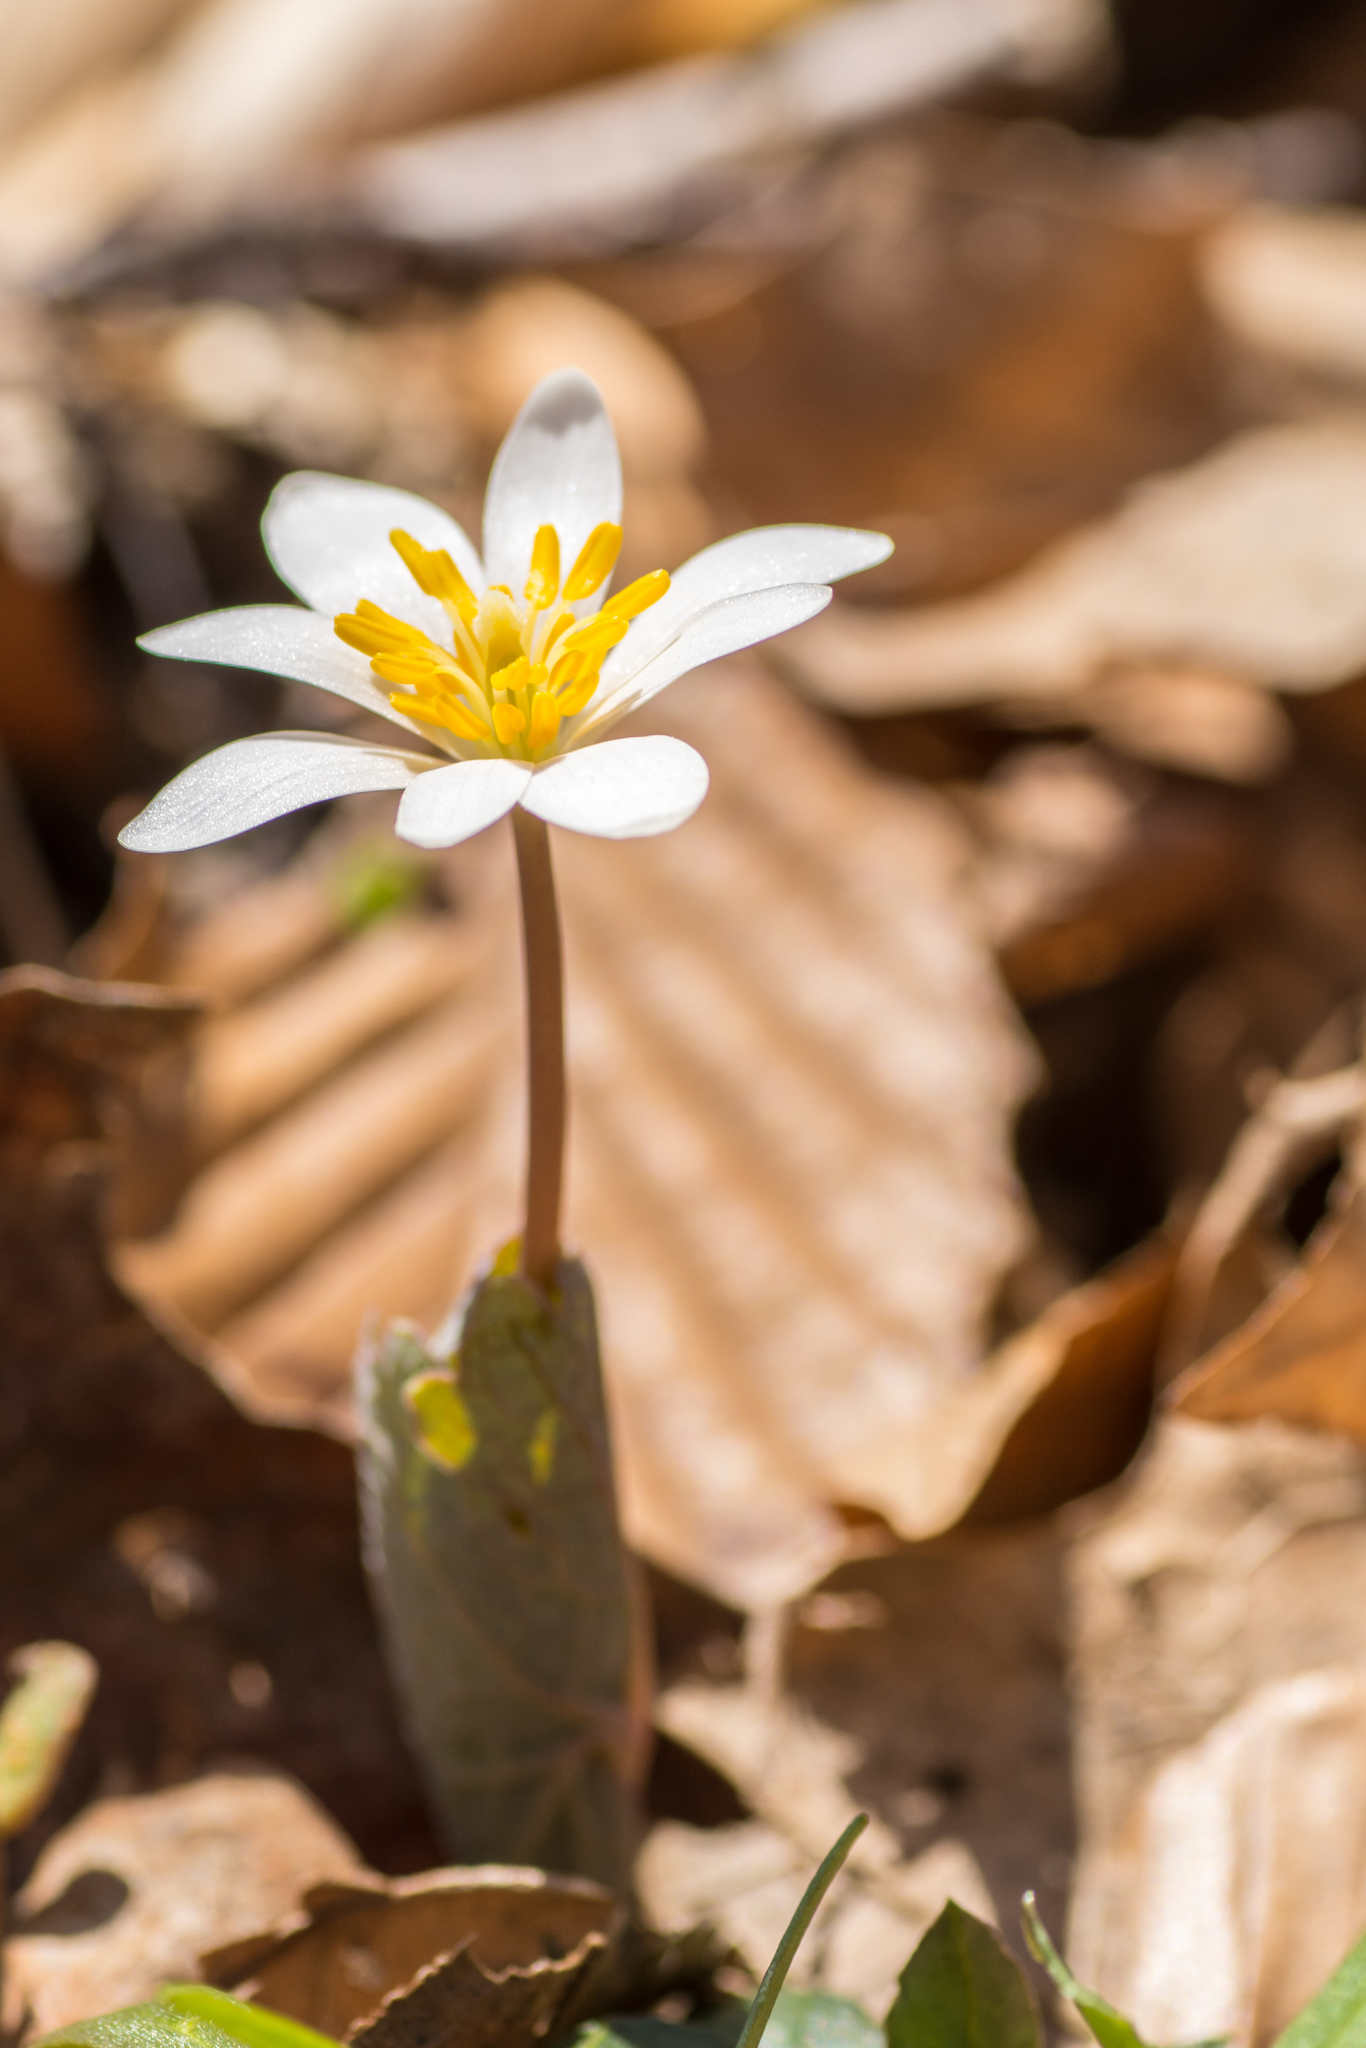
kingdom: Plantae
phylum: Tracheophyta
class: Magnoliopsida
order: Ranunculales
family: Papaveraceae
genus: Sanguinaria
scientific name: Sanguinaria canadensis
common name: Bloodroot
